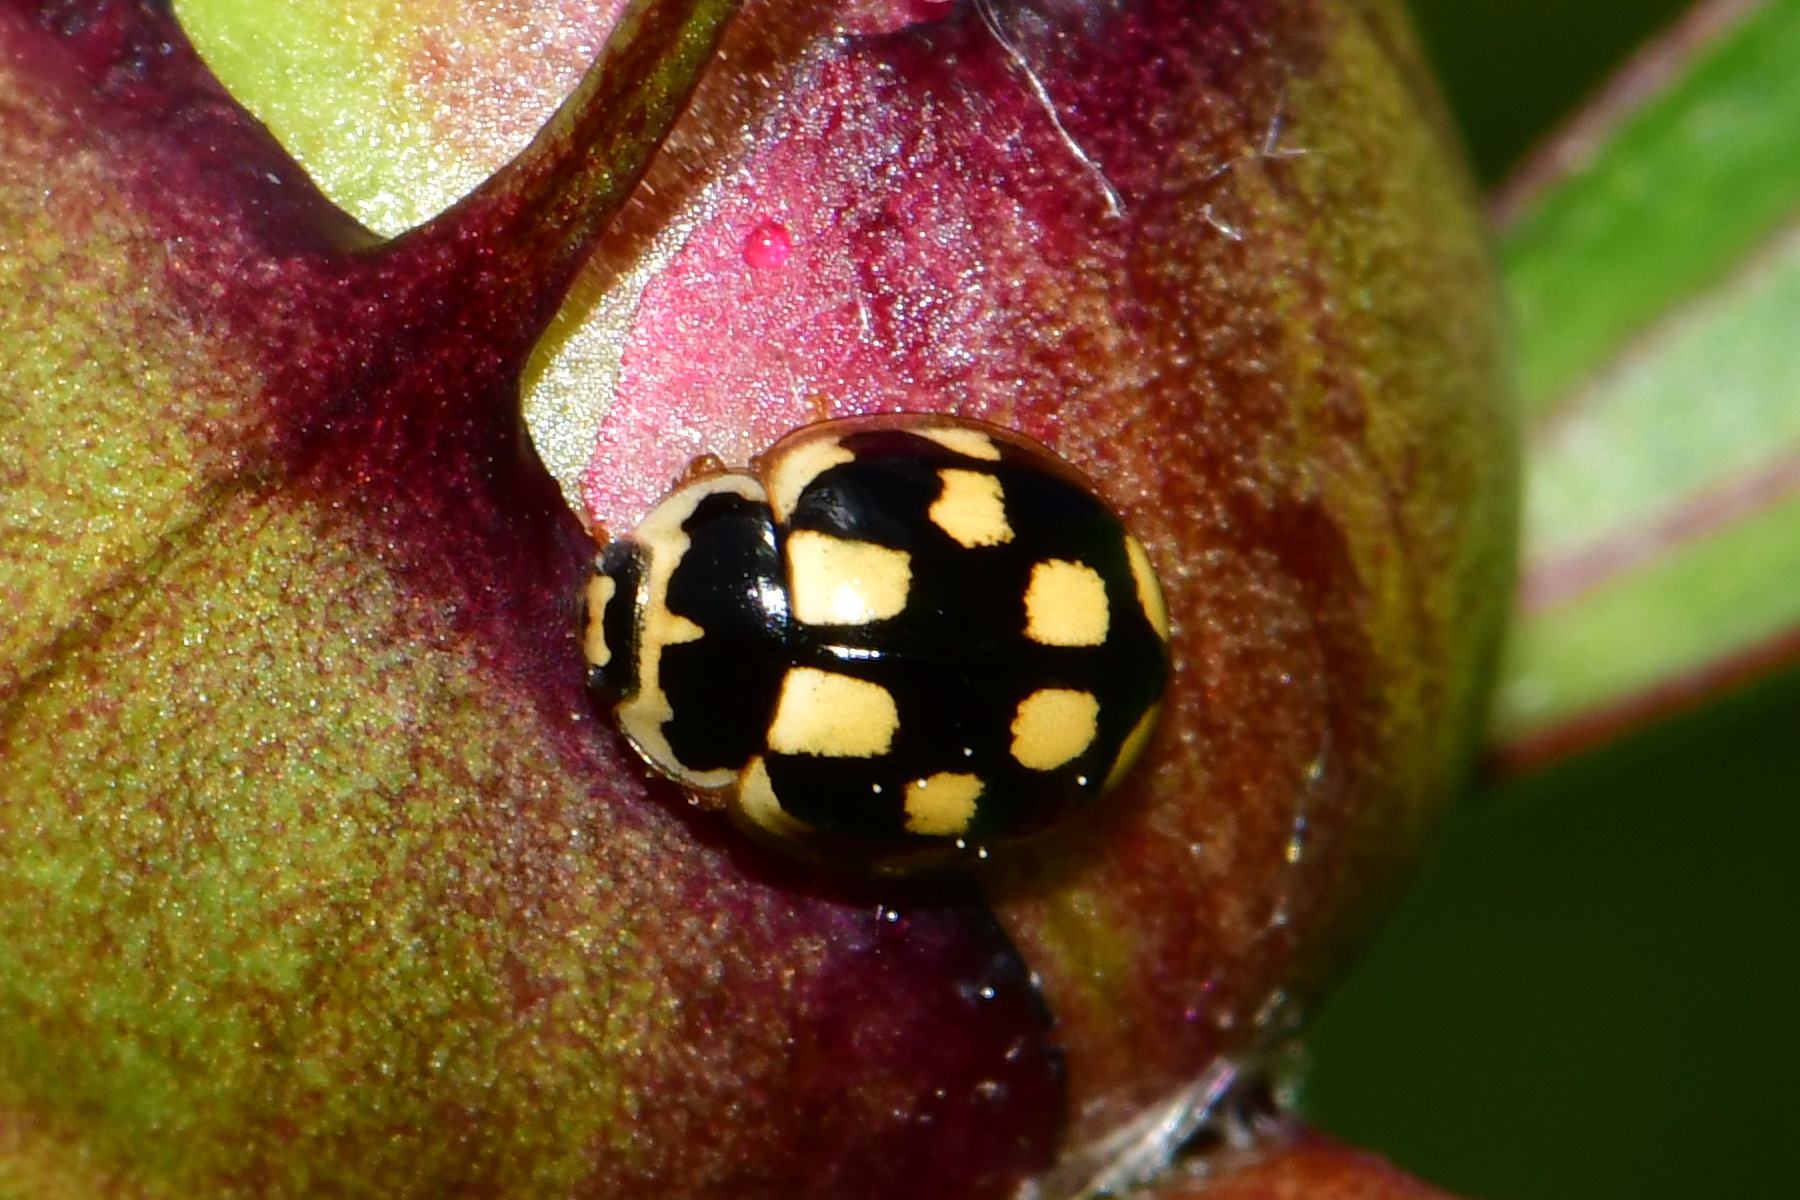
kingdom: Animalia
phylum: Arthropoda
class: Insecta
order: Coleoptera
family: Coccinellidae
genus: Propylaea
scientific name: Propylaea quatuordecimpunctata
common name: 14-spotted ladybird beetle
